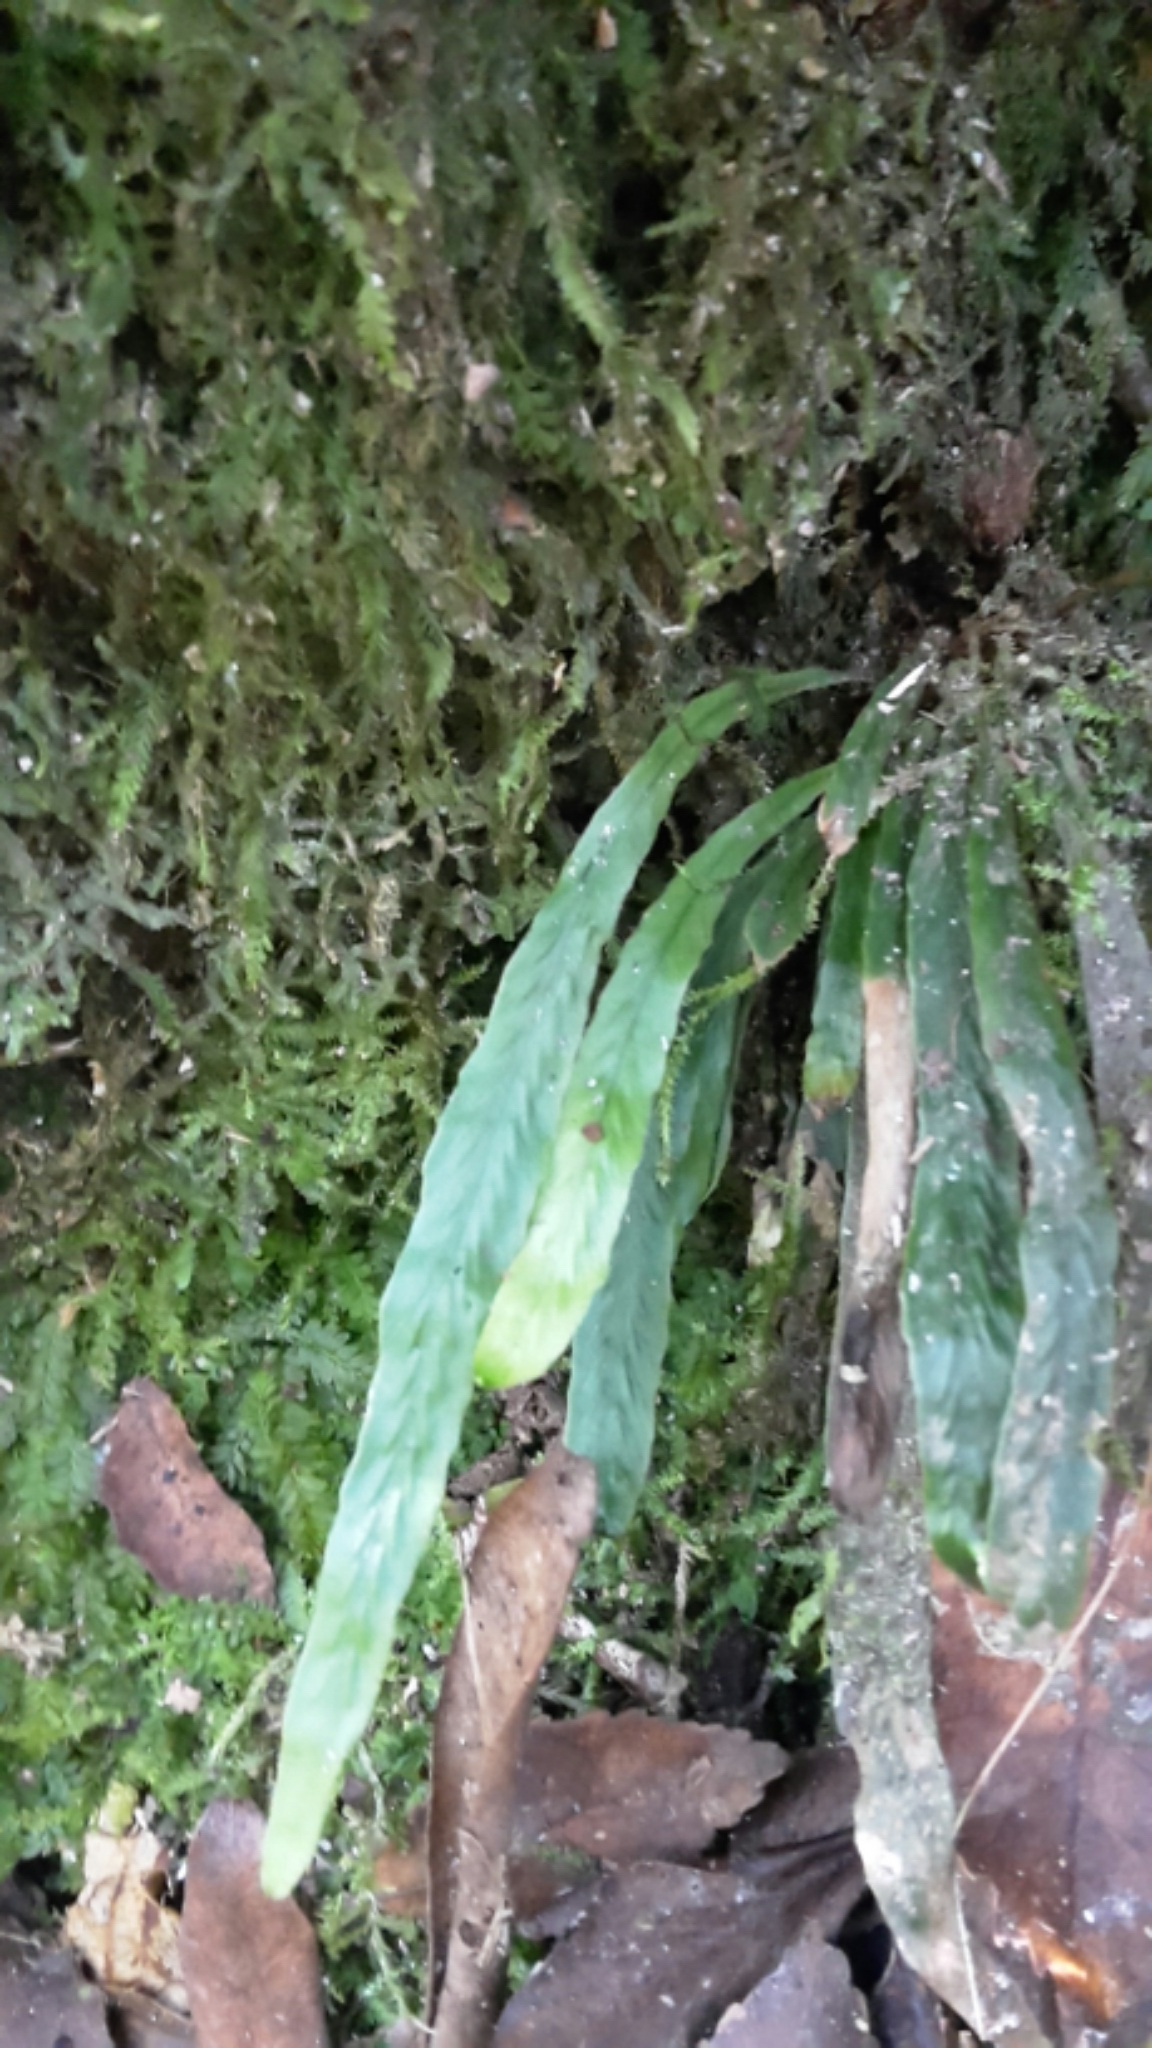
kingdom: Plantae
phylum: Tracheophyta
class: Polypodiopsida
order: Polypodiales
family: Polypodiaceae
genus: Notogrammitis
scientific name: Notogrammitis billardierei
